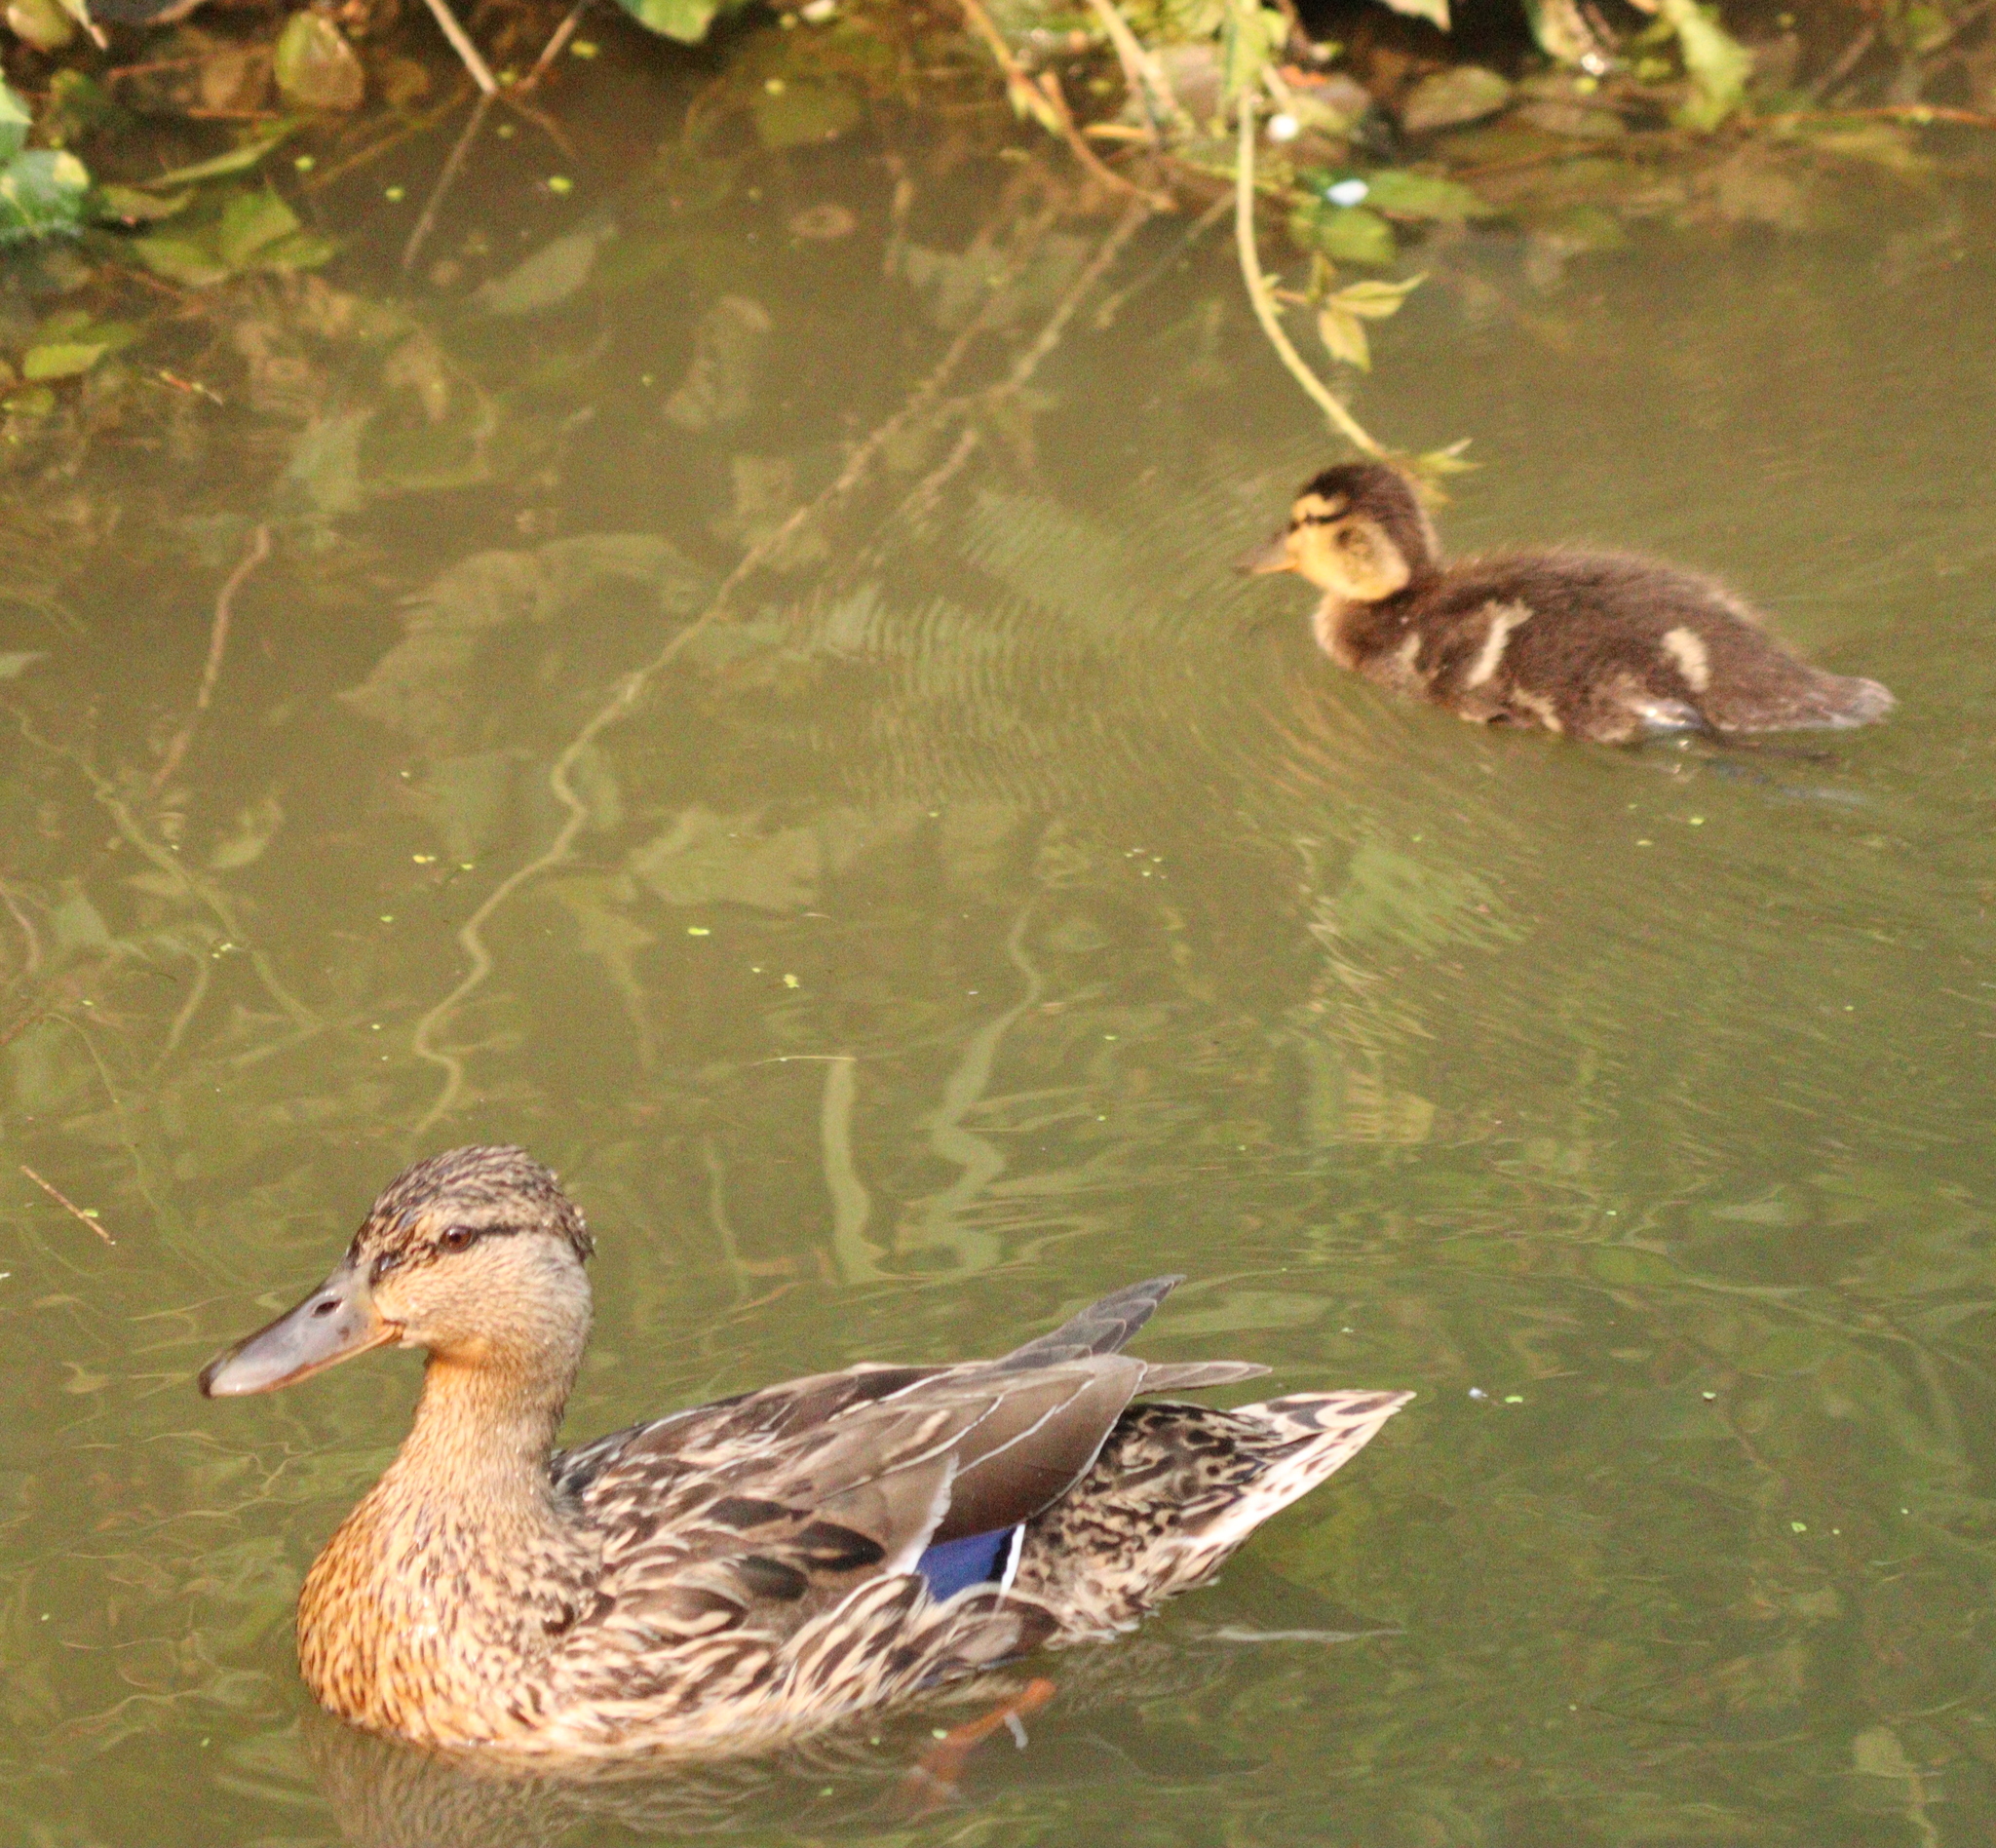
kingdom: Animalia
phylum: Chordata
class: Aves
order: Anseriformes
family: Anatidae
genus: Anas
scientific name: Anas platyrhynchos
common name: Mallard
